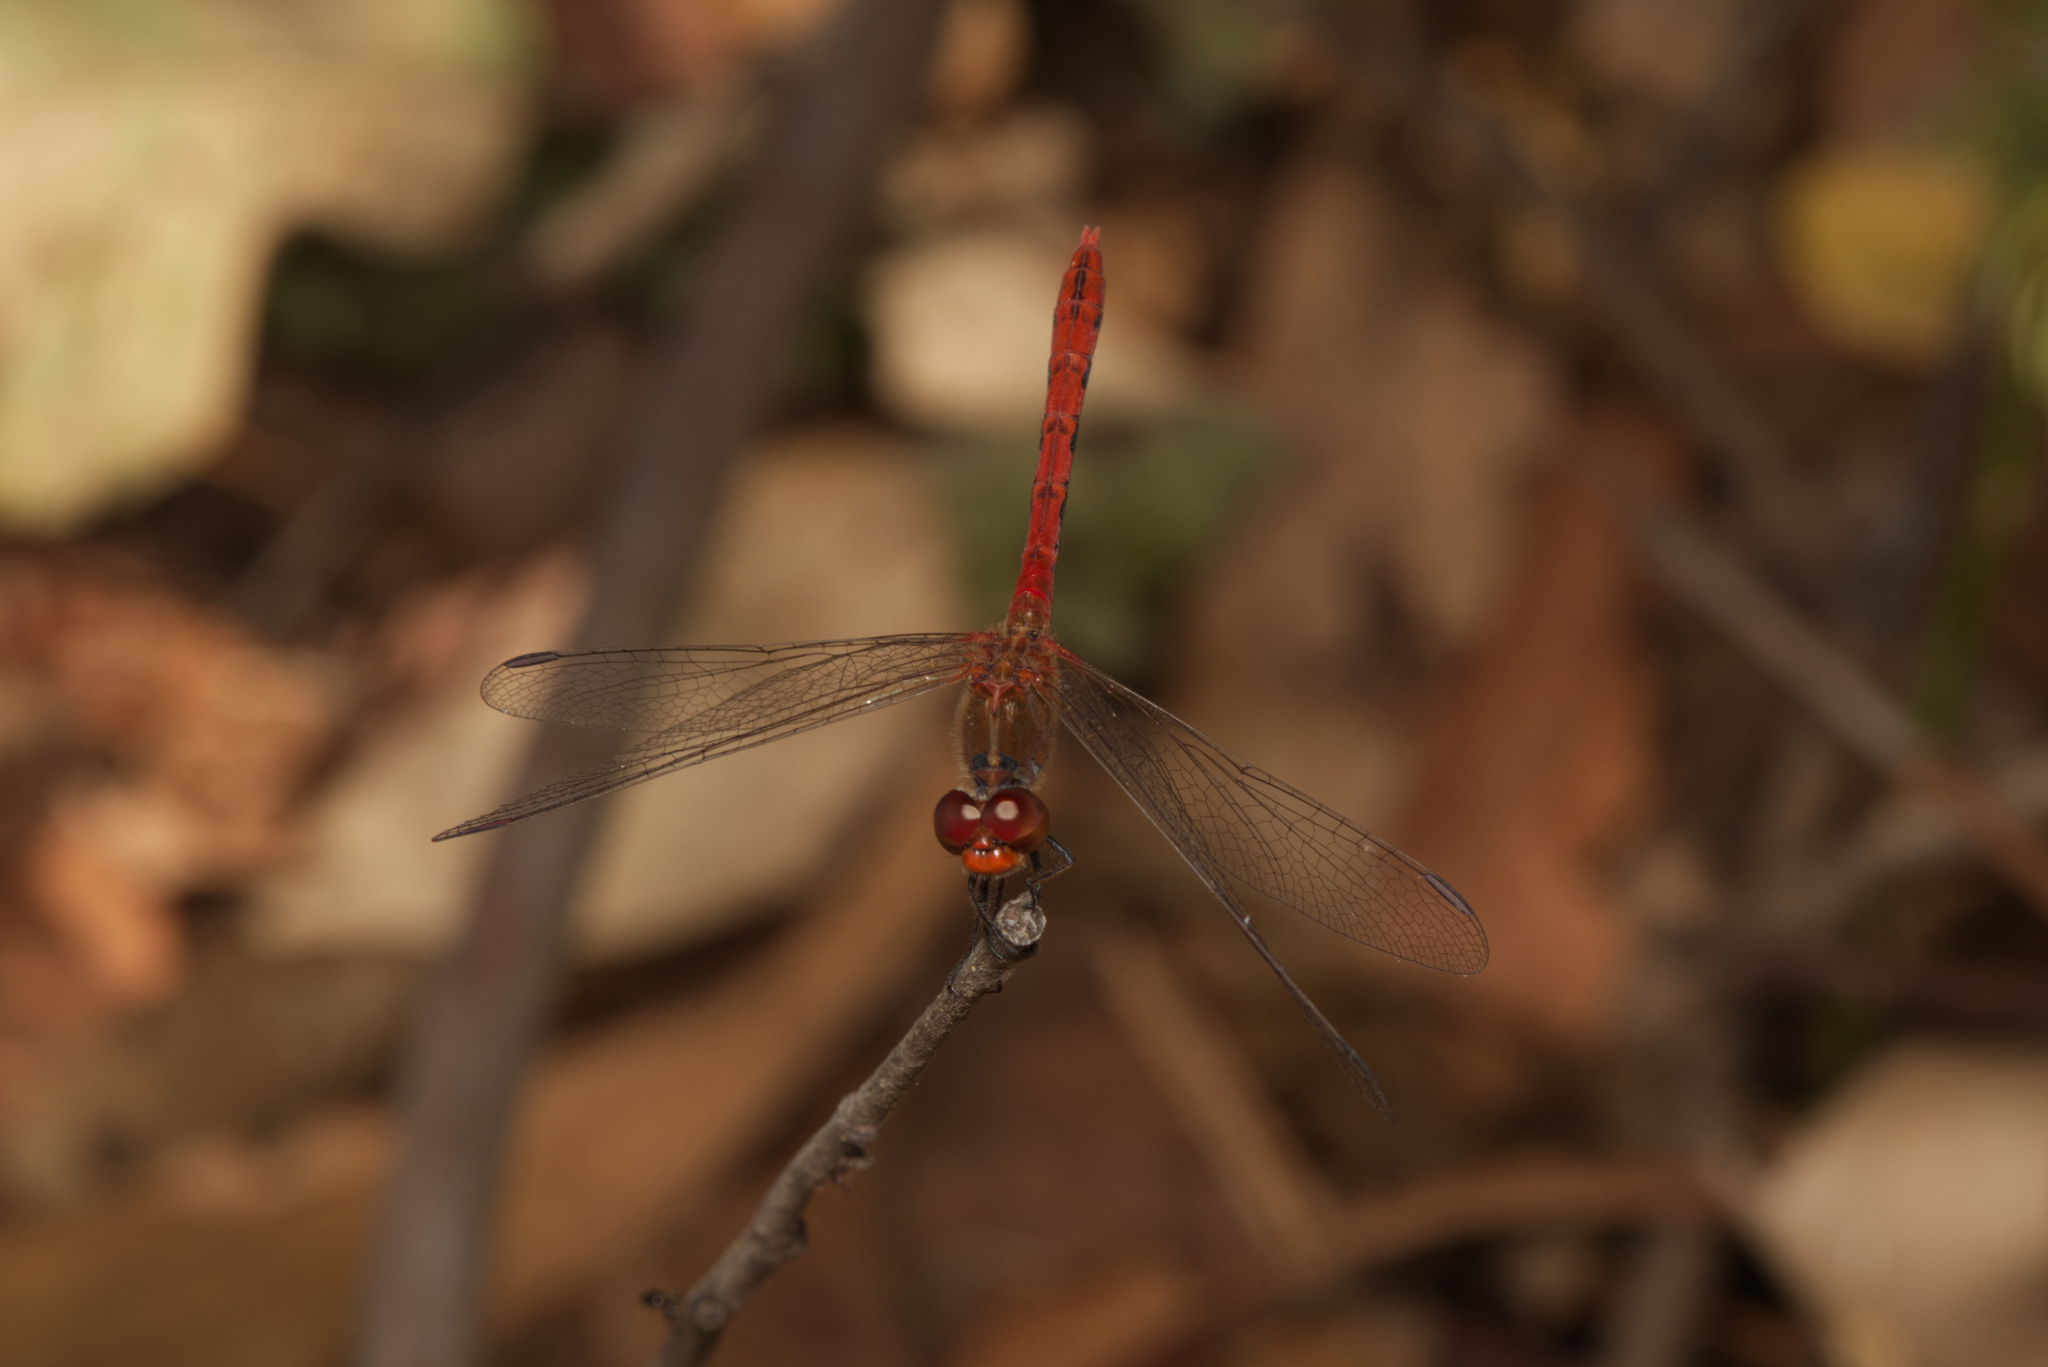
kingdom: Animalia
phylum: Arthropoda
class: Insecta
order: Odonata
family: Libellulidae
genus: Diplacodes
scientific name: Diplacodes bipunctata
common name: Red percher dragonfly
